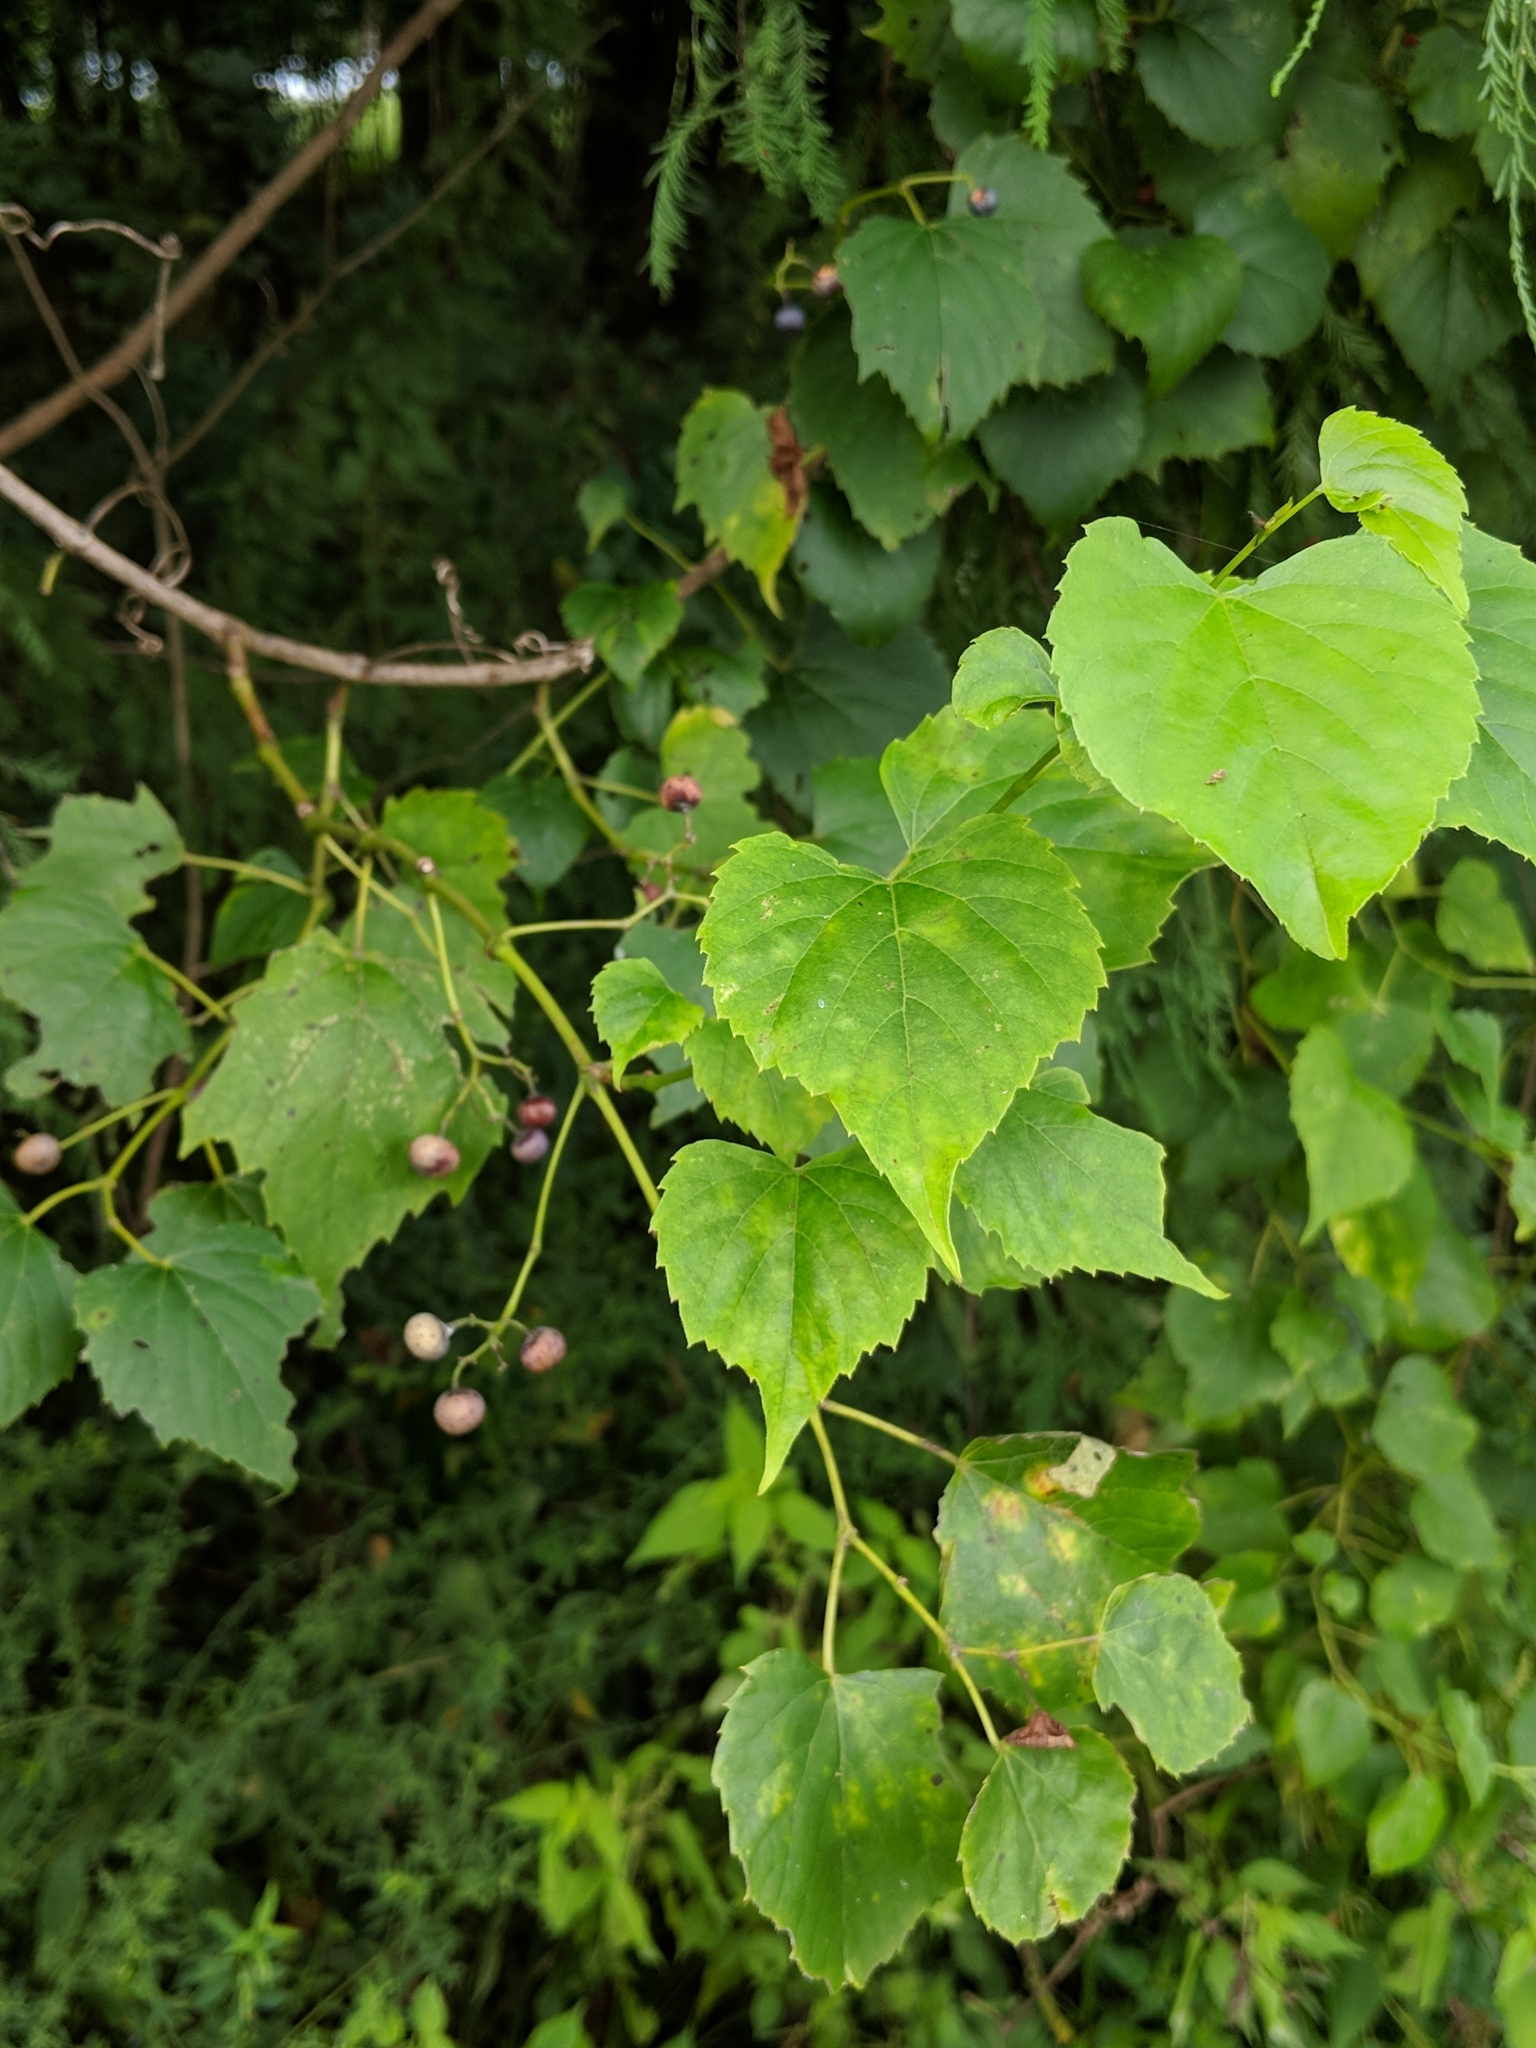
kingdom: Plantae
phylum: Tracheophyta
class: Magnoliopsida
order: Vitales
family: Vitaceae
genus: Ampelopsis
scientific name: Ampelopsis cordata
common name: Heart-leaf ampelopsis
